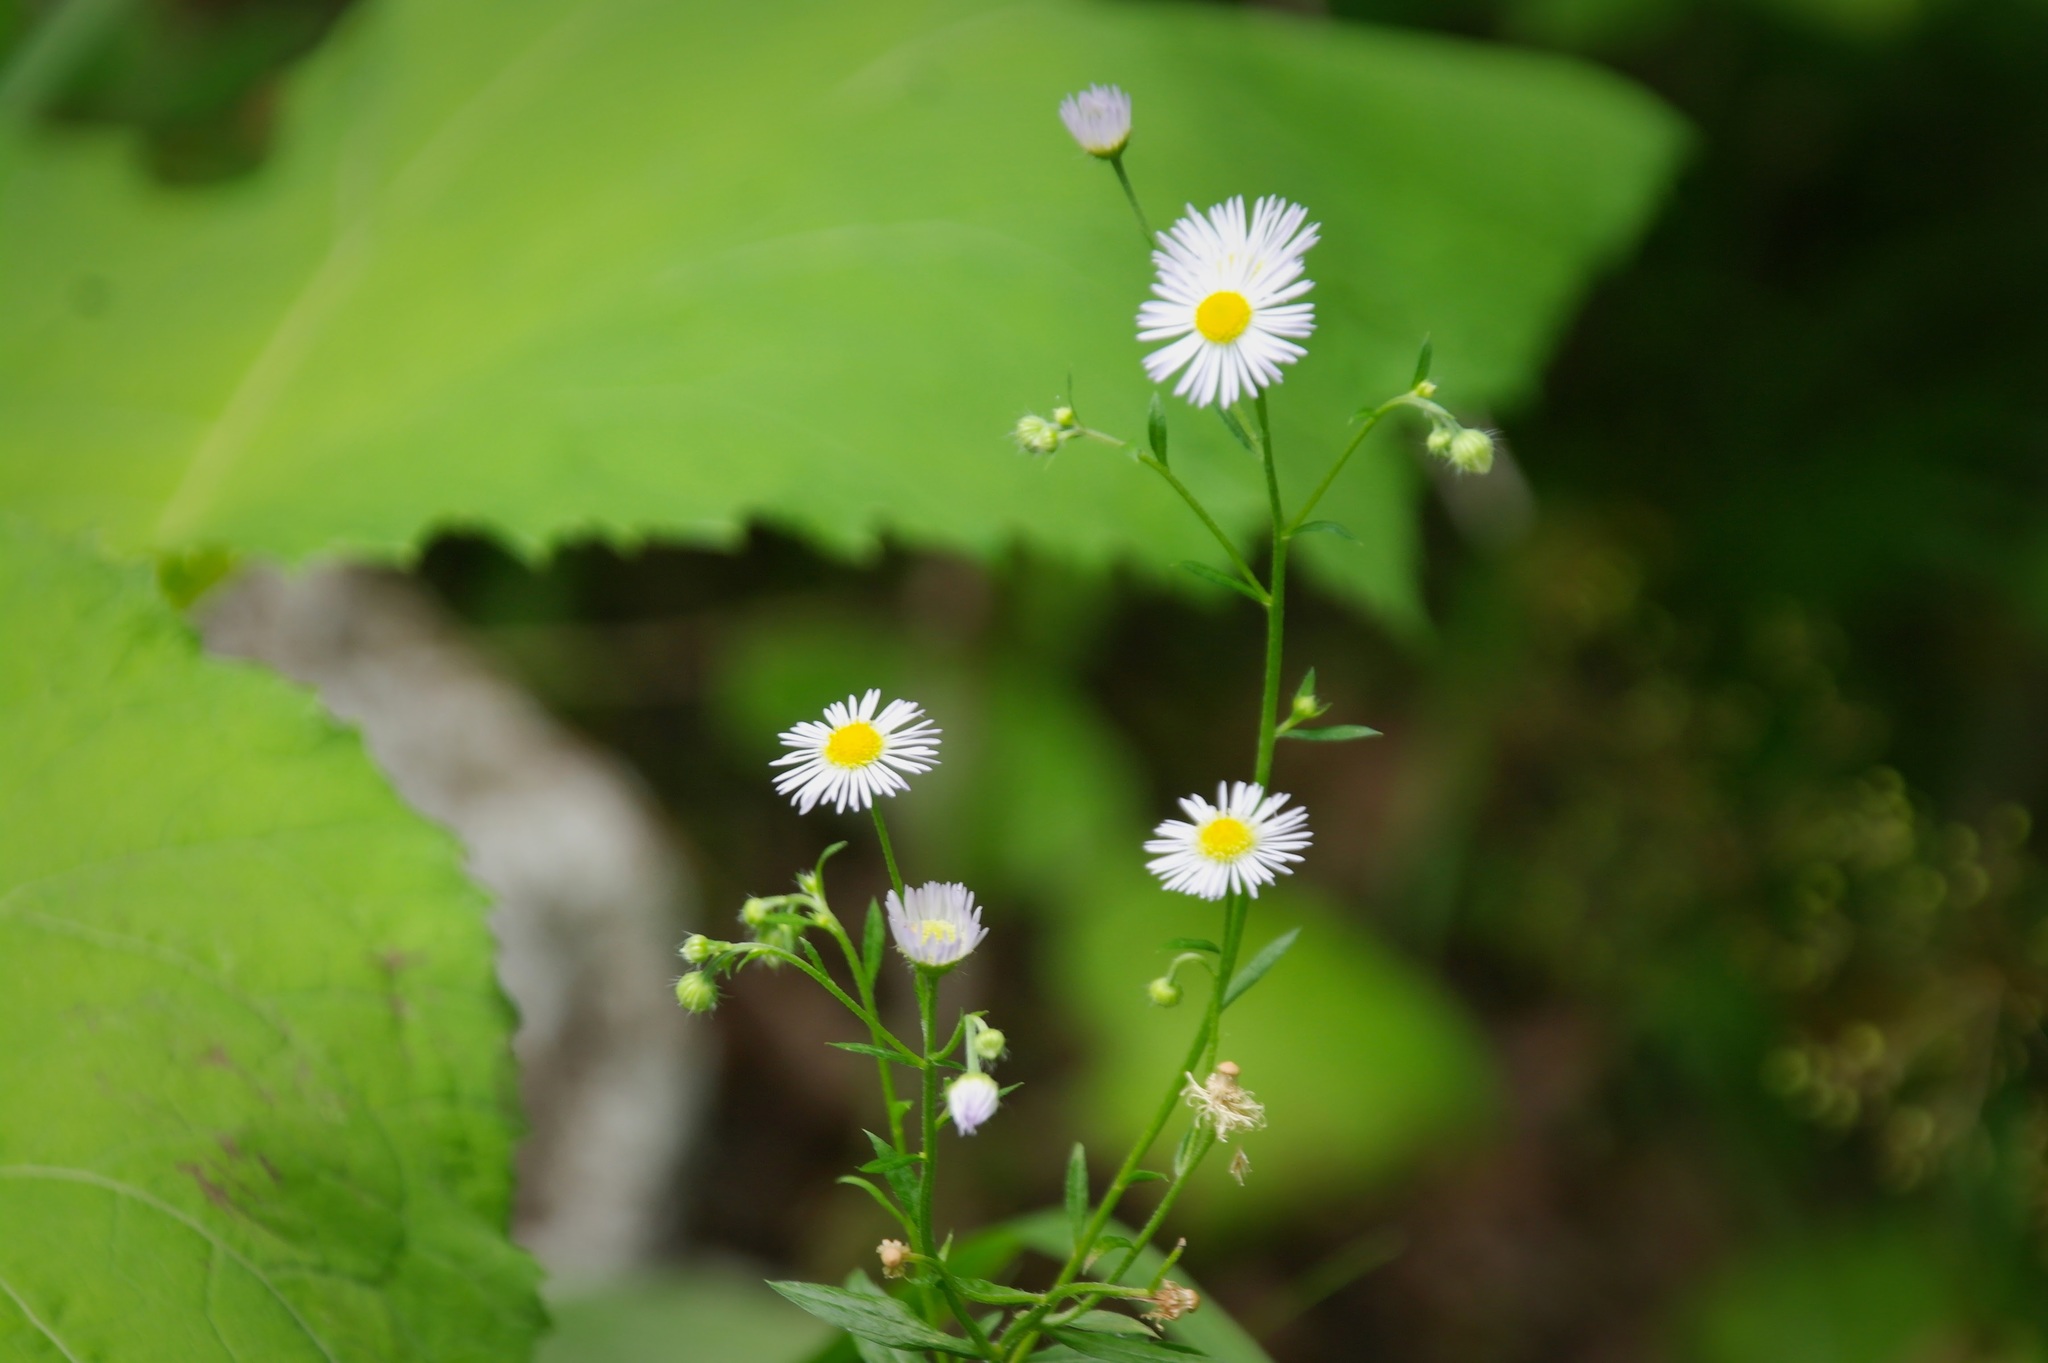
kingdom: Plantae
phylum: Tracheophyta
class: Magnoliopsida
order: Asterales
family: Asteraceae
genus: Erigeron
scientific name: Erigeron annuus
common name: Tall fleabane
